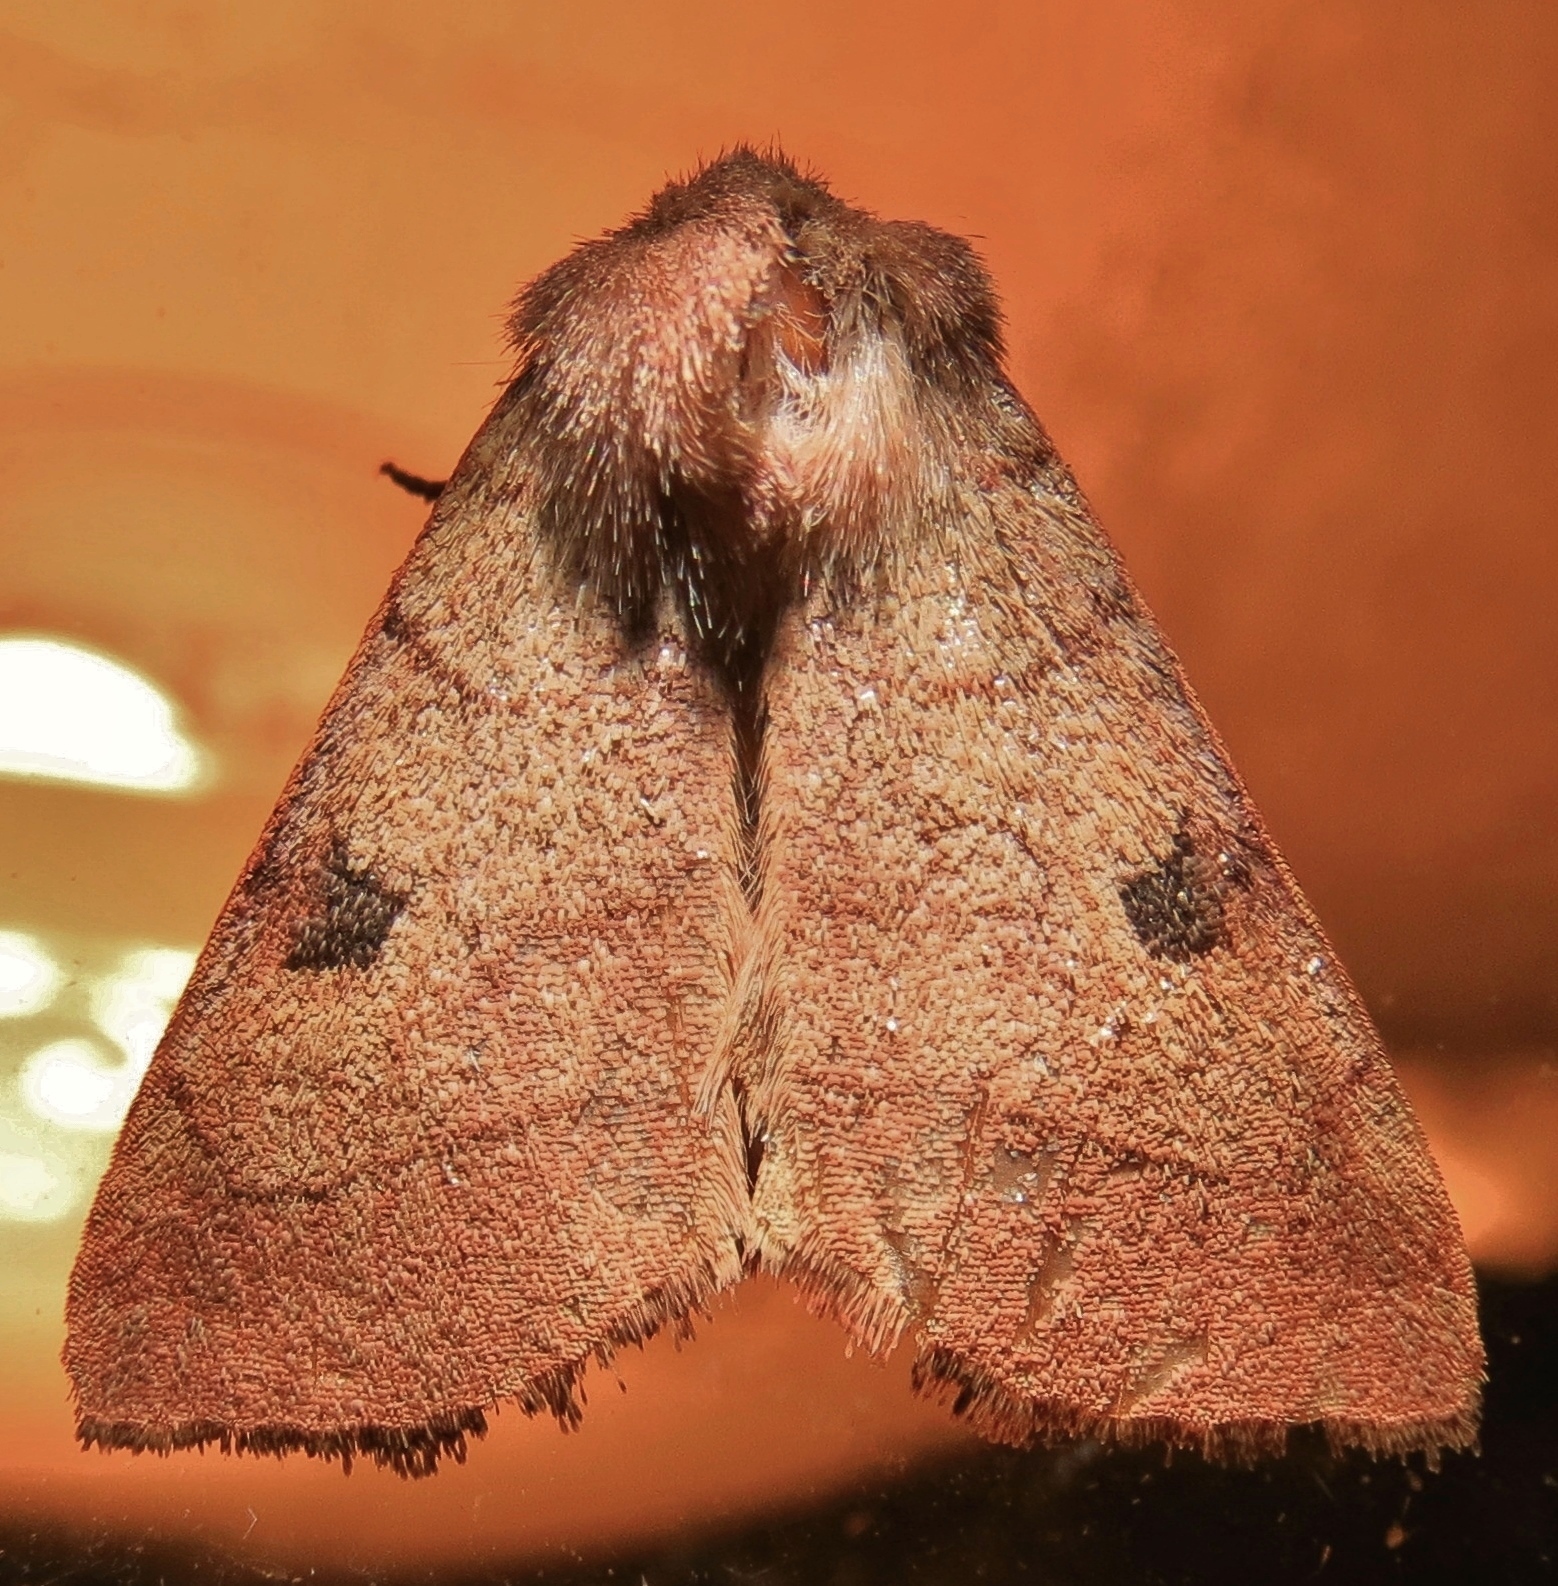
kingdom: Animalia
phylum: Arthropoda
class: Insecta
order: Lepidoptera
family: Noctuidae
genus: Choephora
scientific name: Choephora fungorum
